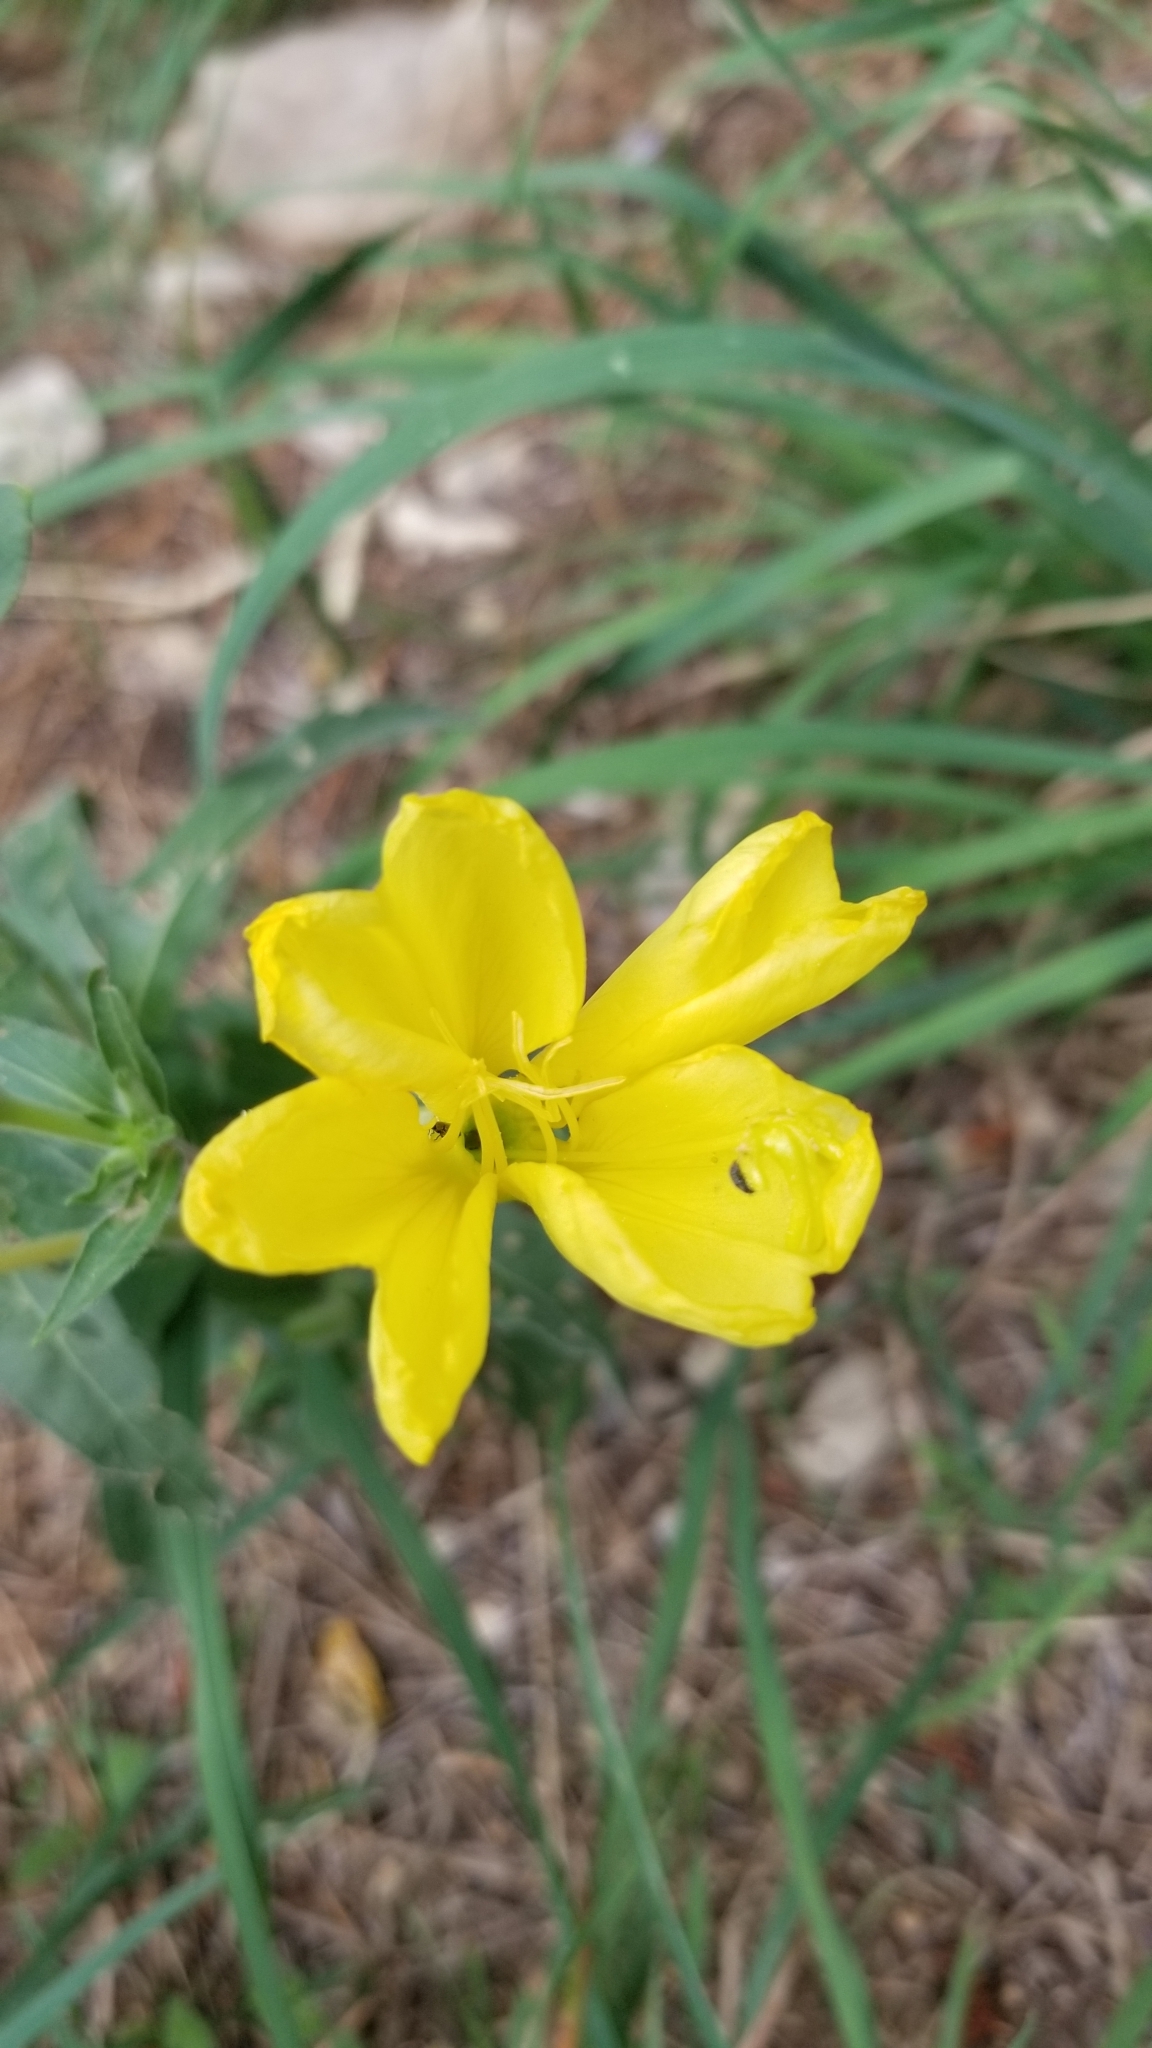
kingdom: Plantae
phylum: Tracheophyta
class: Magnoliopsida
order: Myrtales
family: Onagraceae
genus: Oenothera
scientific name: Oenothera elata
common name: Hooker's evening-primrose
